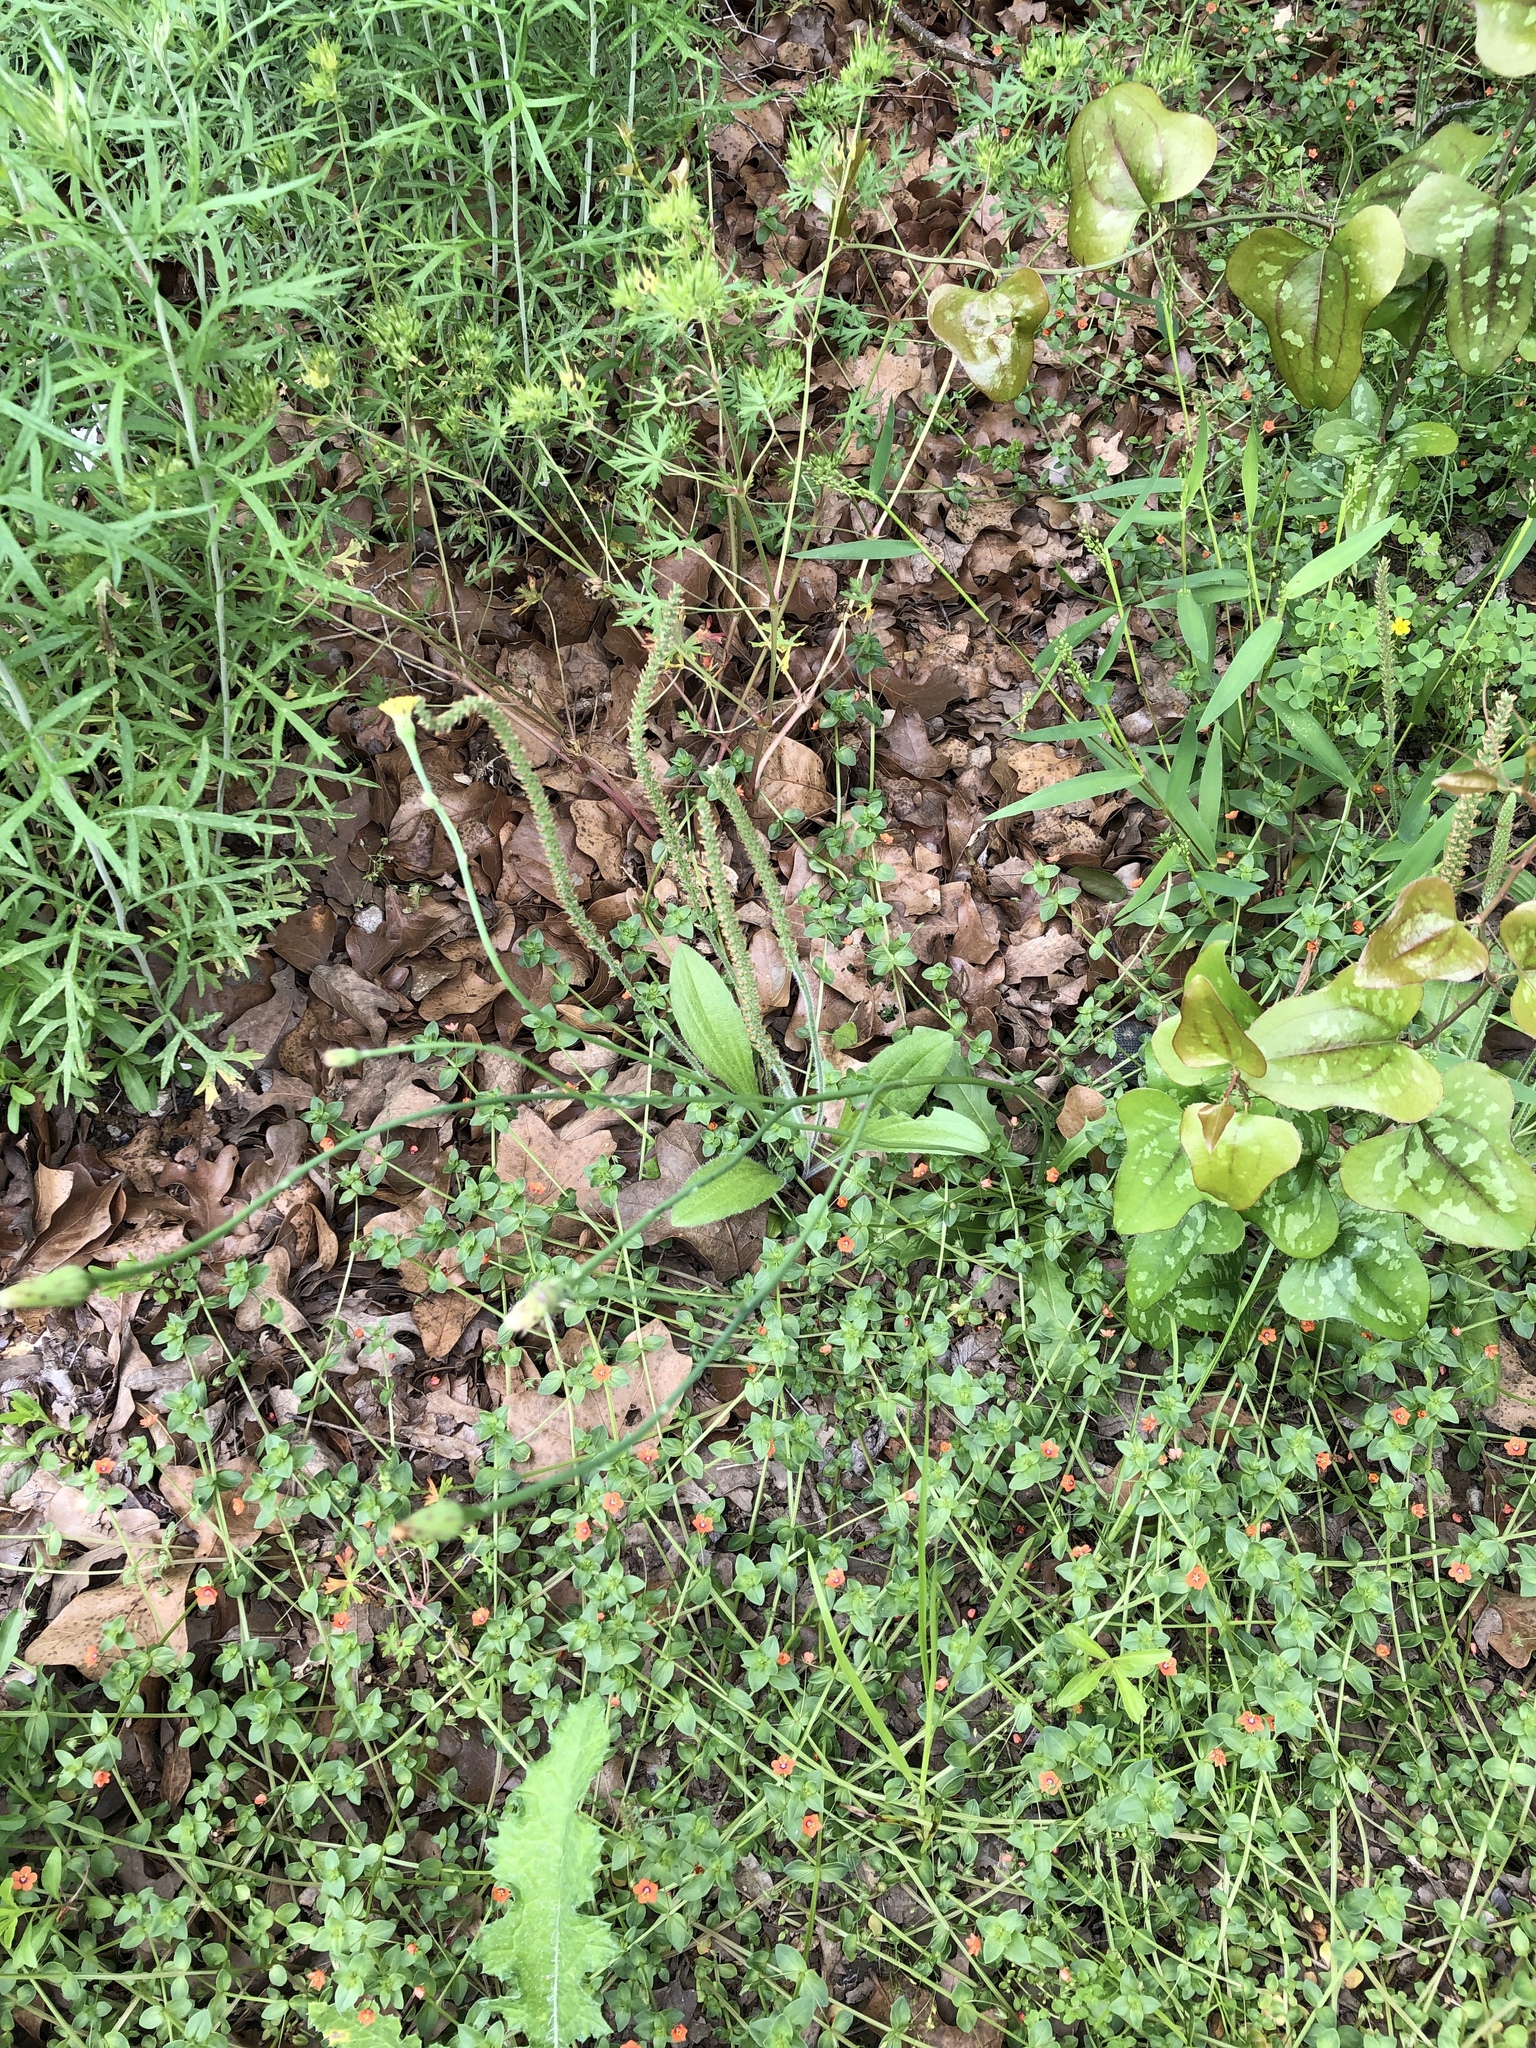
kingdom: Plantae
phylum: Tracheophyta
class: Magnoliopsida
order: Asterales
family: Asteraceae
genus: Hypochaeris
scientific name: Hypochaeris glabra
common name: Smooth catsear
